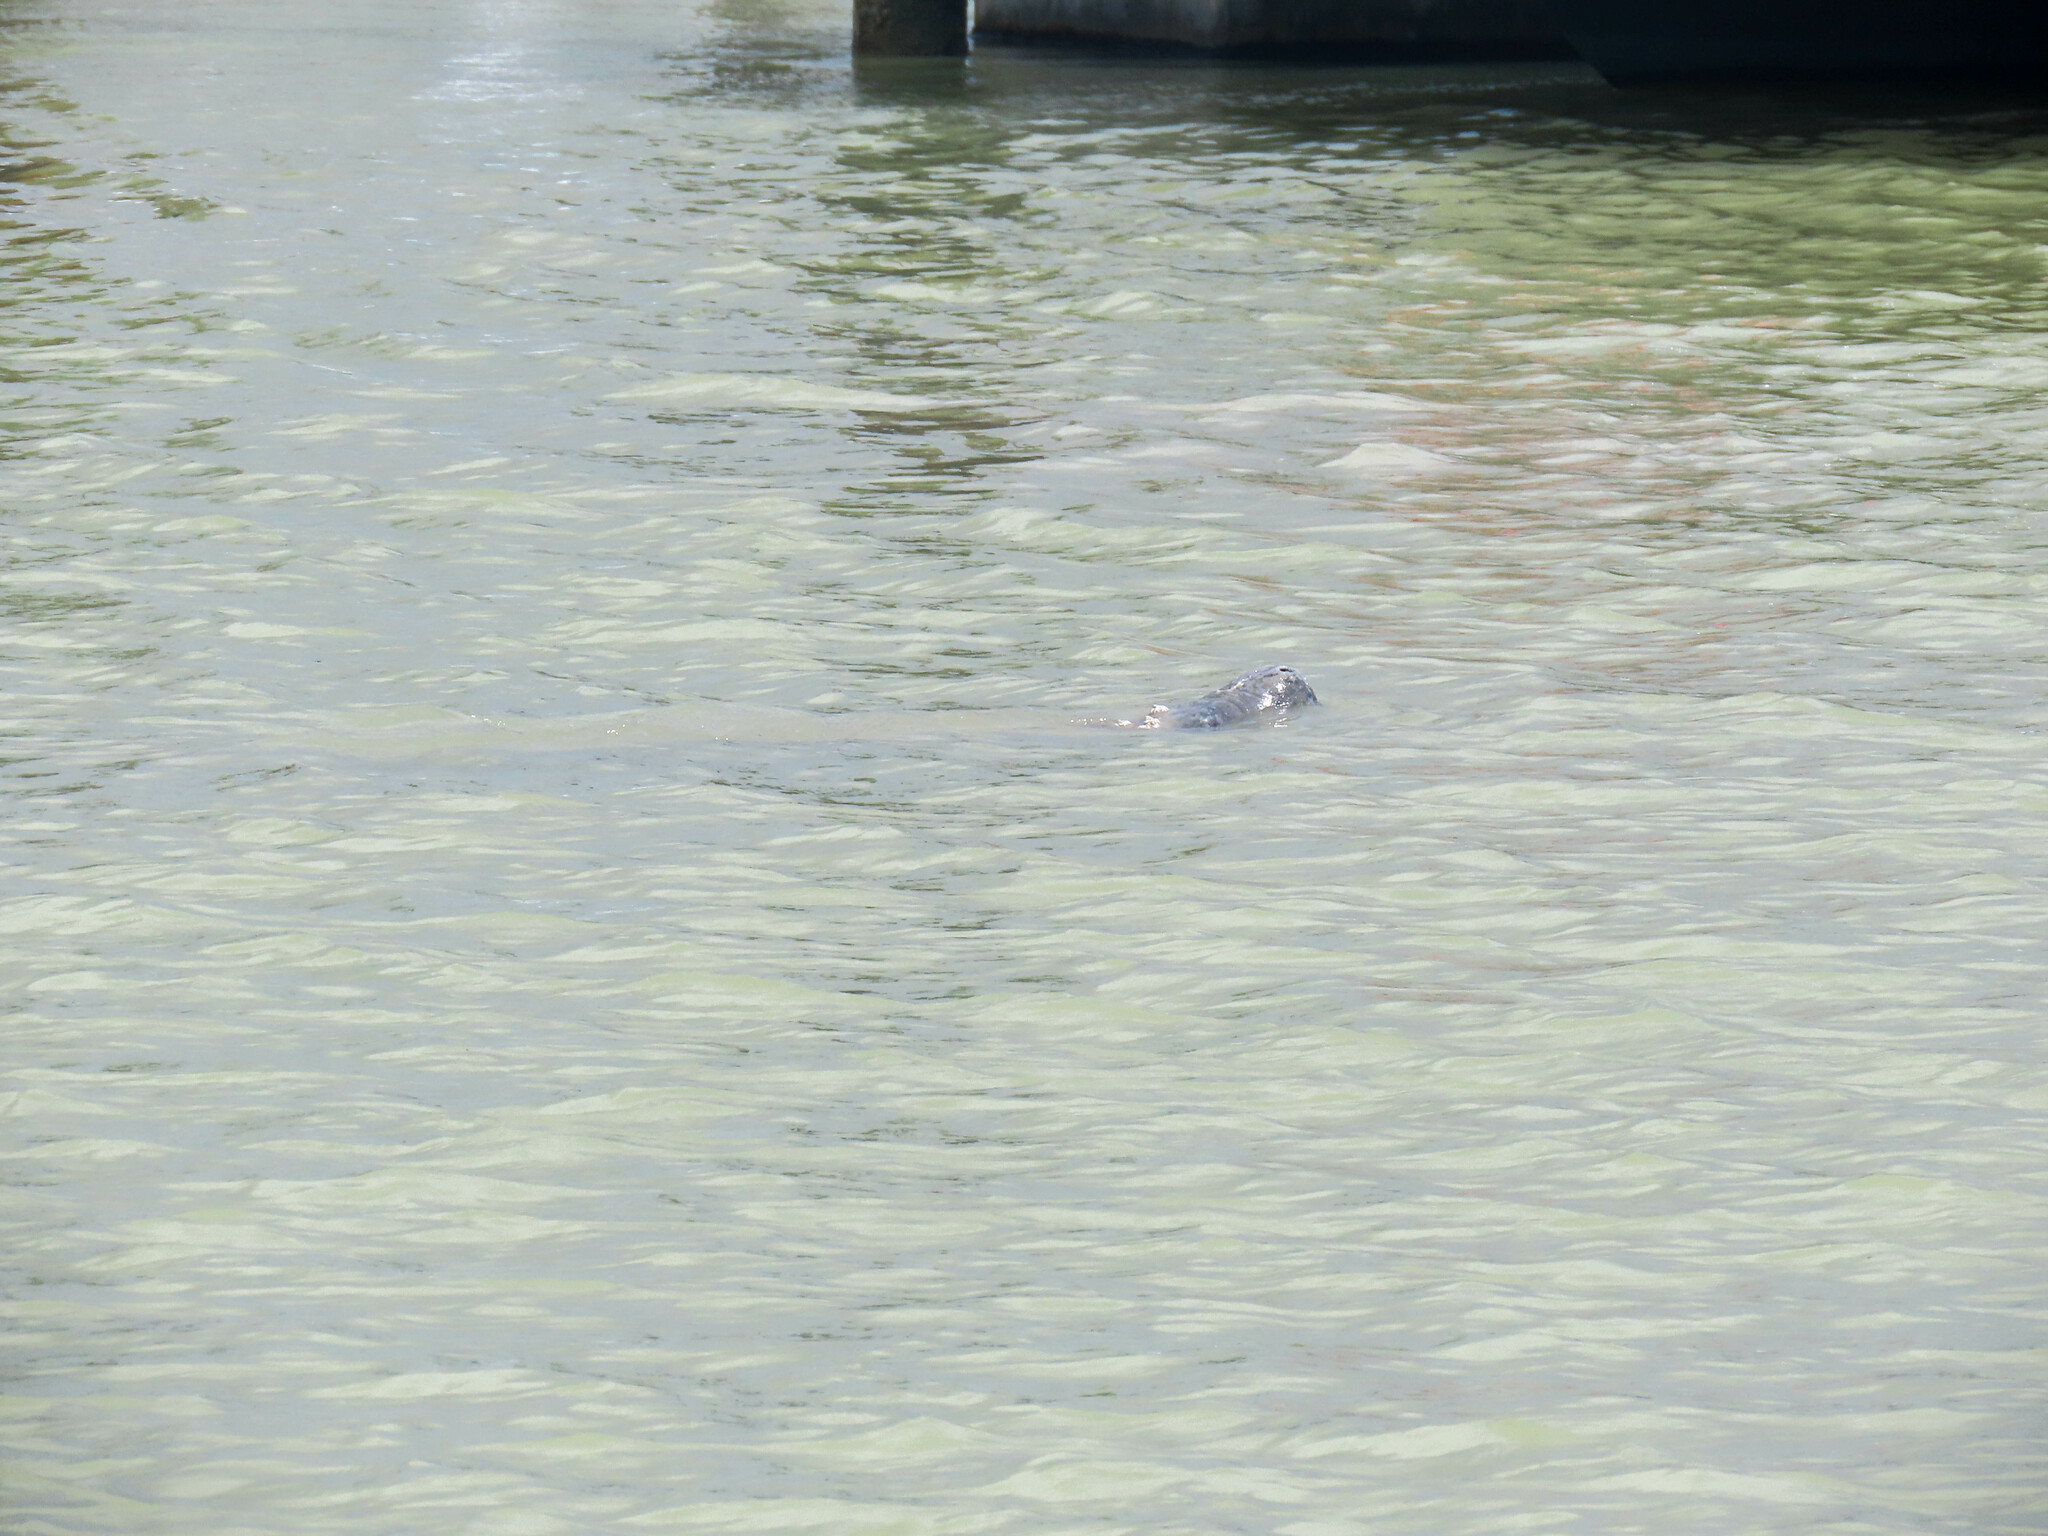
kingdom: Animalia
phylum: Chordata
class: Mammalia
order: Sirenia
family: Trichechidae
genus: Trichechus
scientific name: Trichechus manatus
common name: West indian manatee
